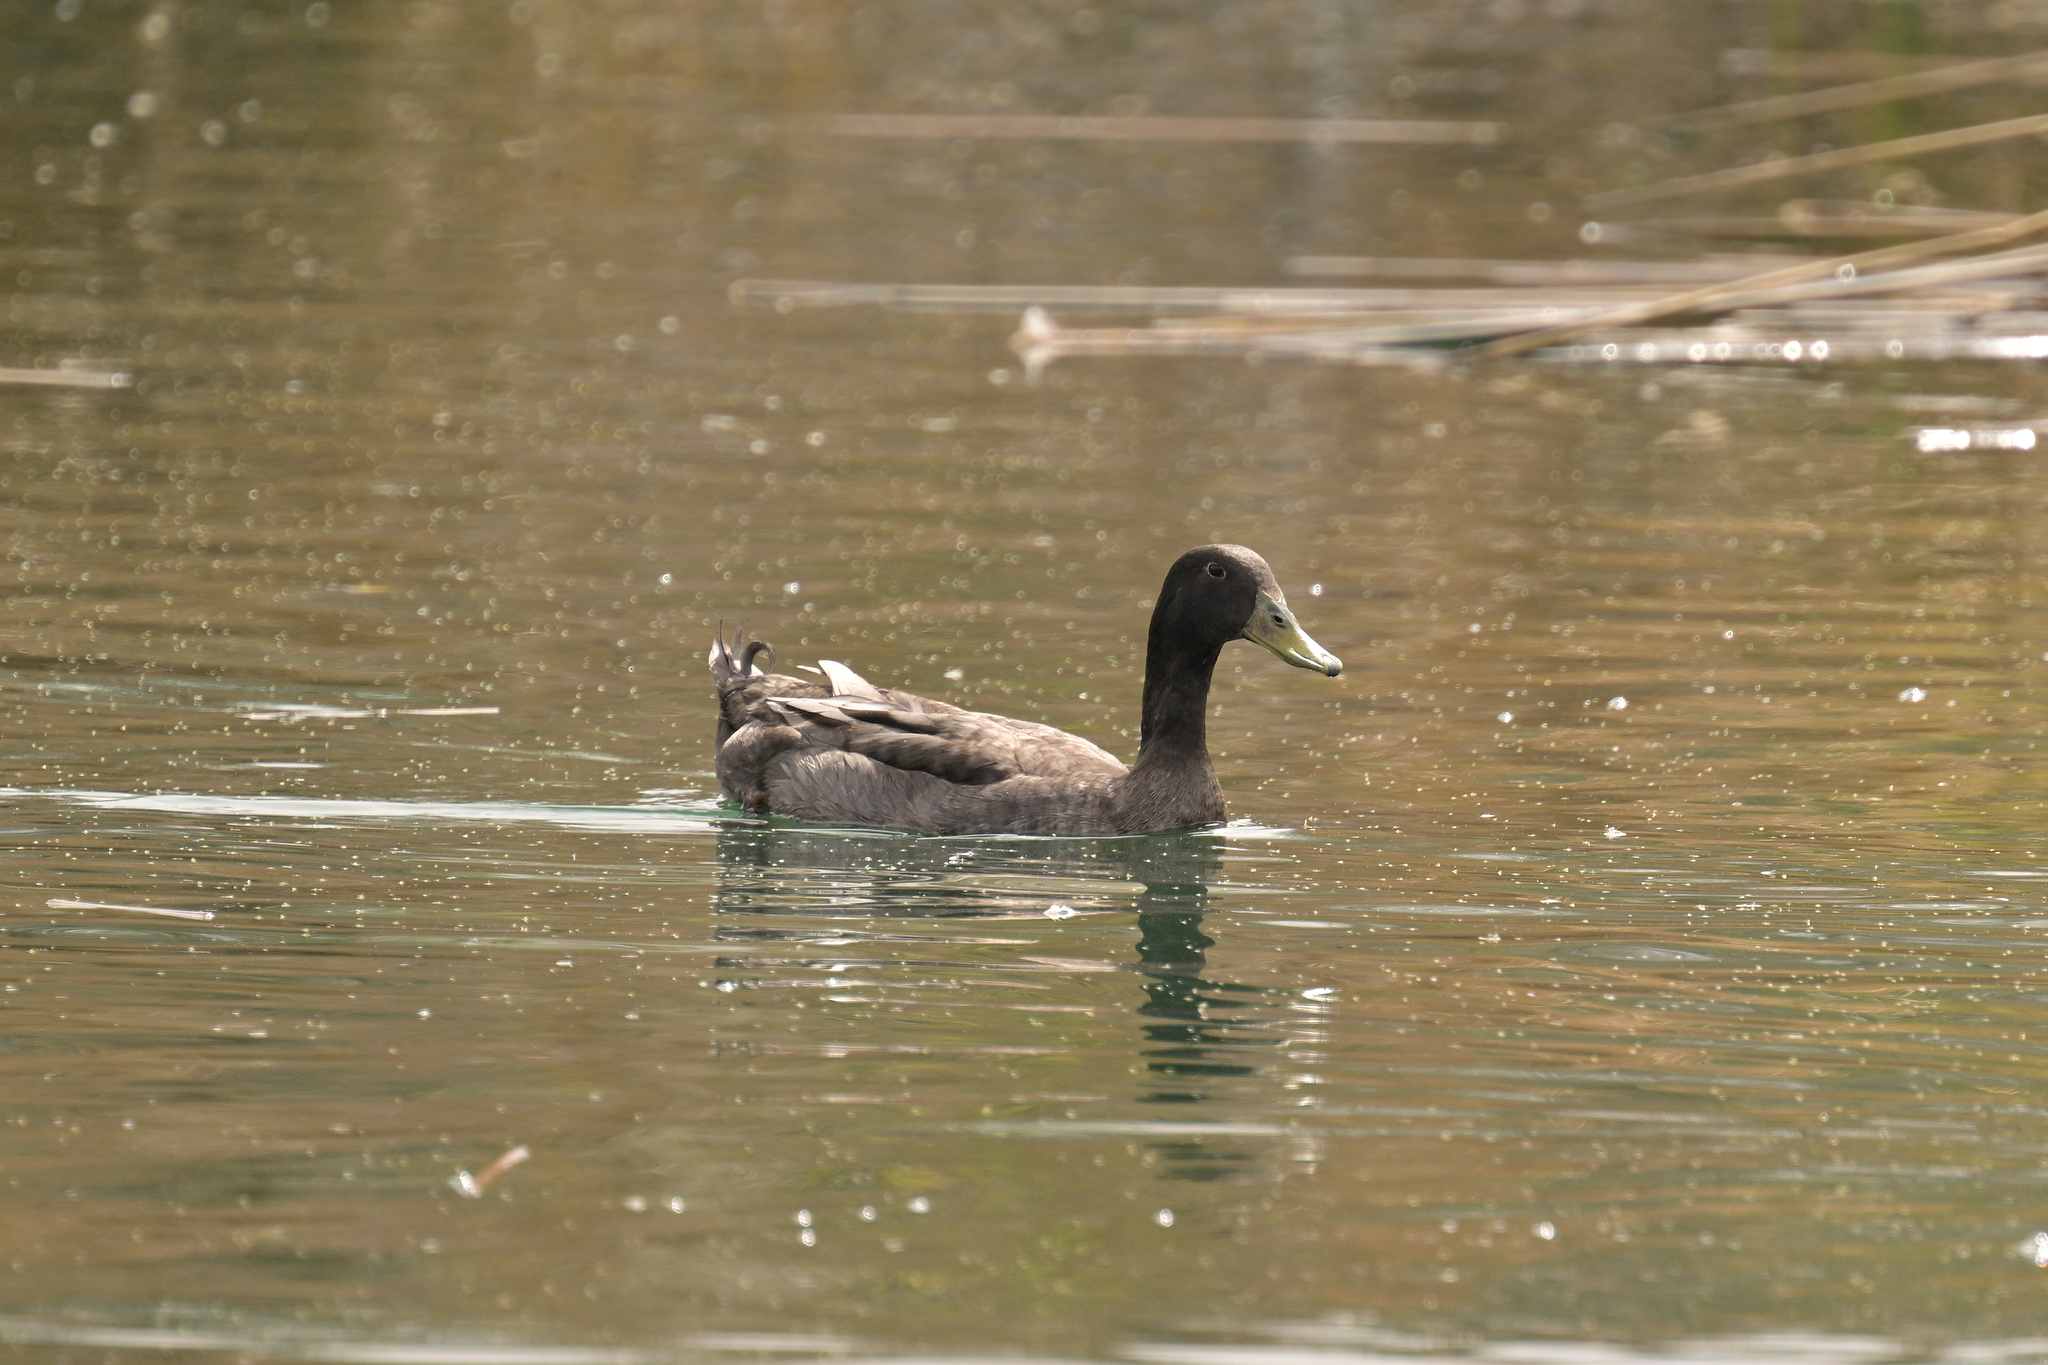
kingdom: Animalia
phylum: Chordata
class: Aves
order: Anseriformes
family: Anatidae
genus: Anas
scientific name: Anas platyrhynchos
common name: Mallard
